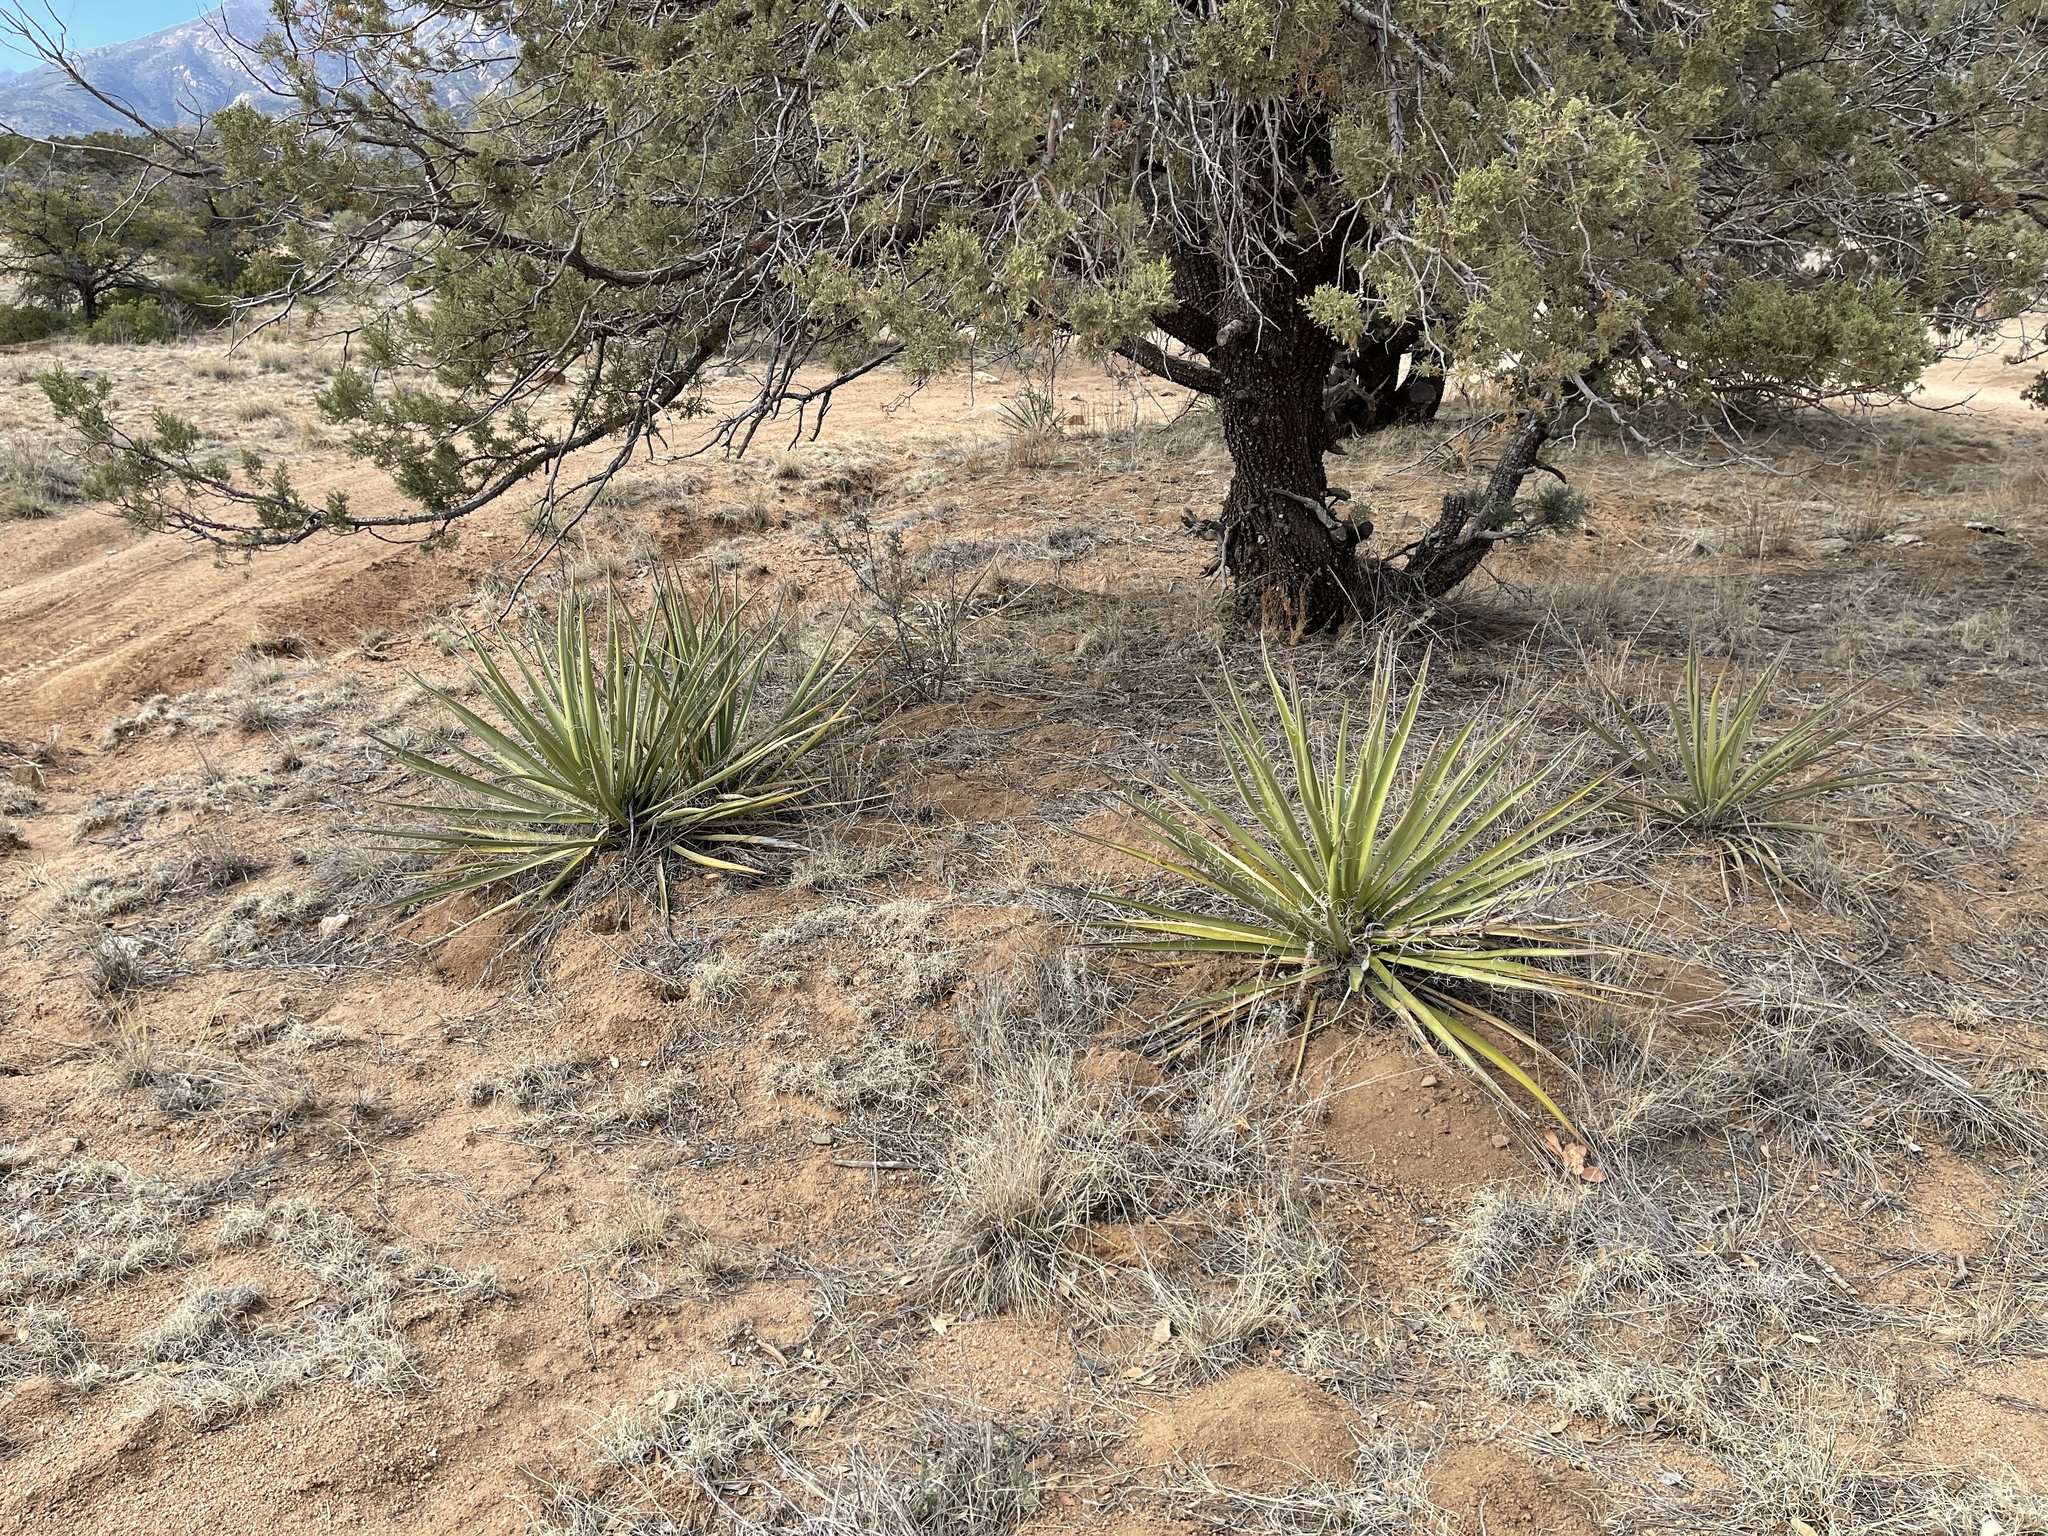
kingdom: Plantae
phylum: Tracheophyta
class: Liliopsida
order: Asparagales
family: Asparagaceae
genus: Yucca
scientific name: Yucca baccata
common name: Banana yucca
